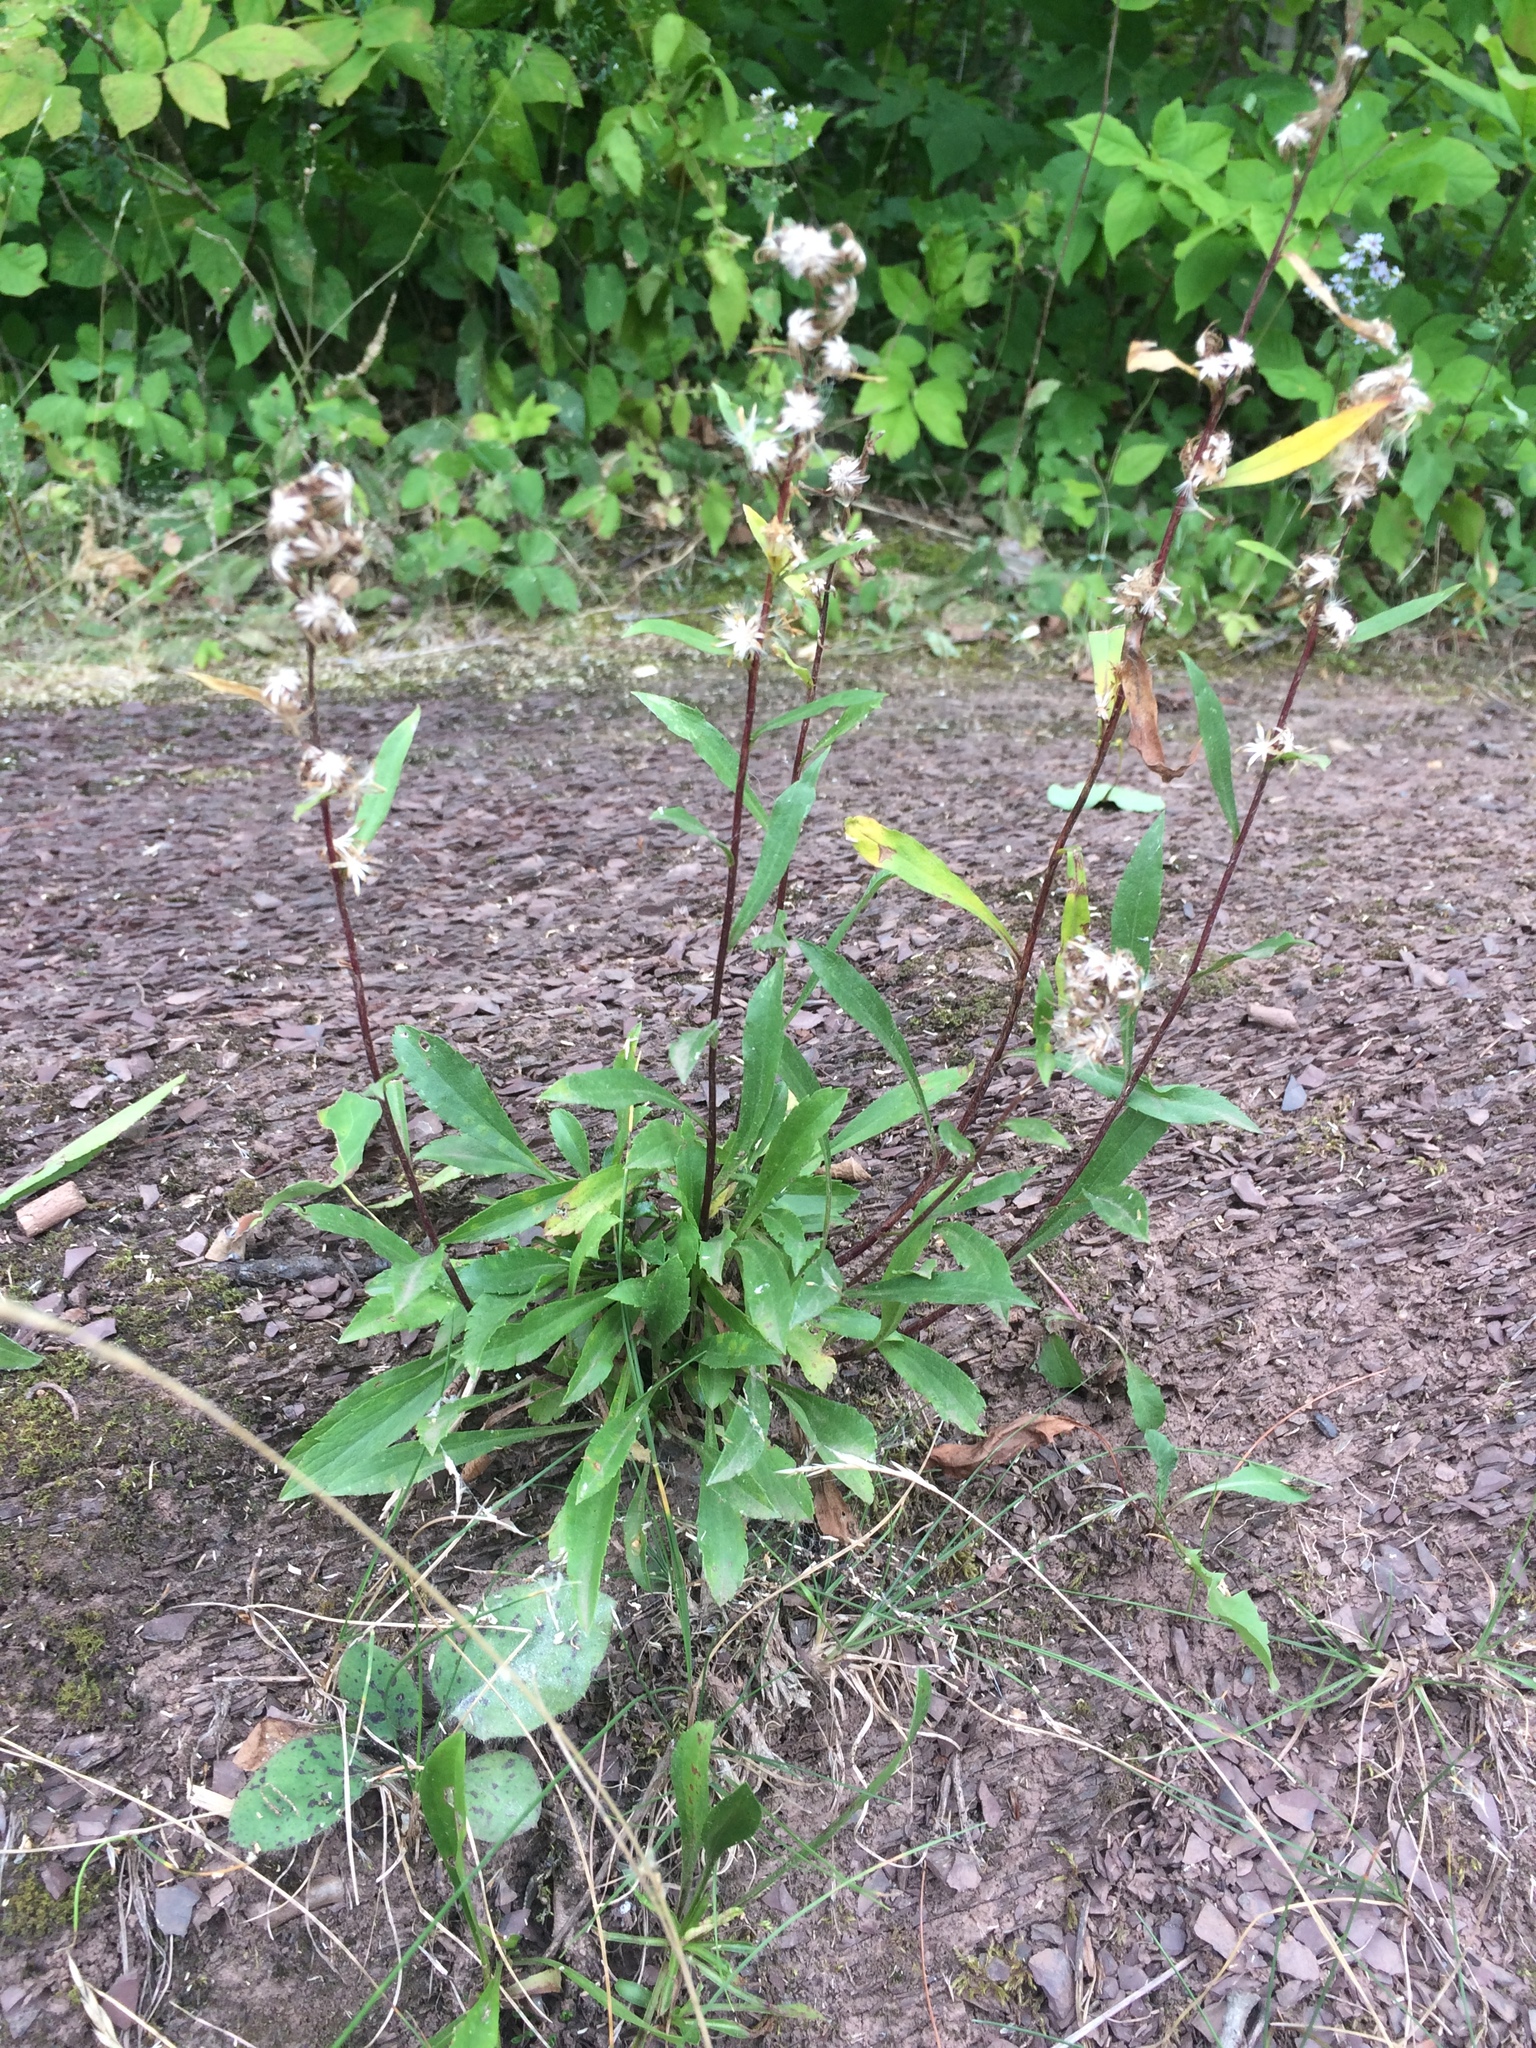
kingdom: Plantae
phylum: Tracheophyta
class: Magnoliopsida
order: Asterales
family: Asteraceae
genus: Solidago
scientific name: Solidago racemosa
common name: Lake ontario goldenrod
